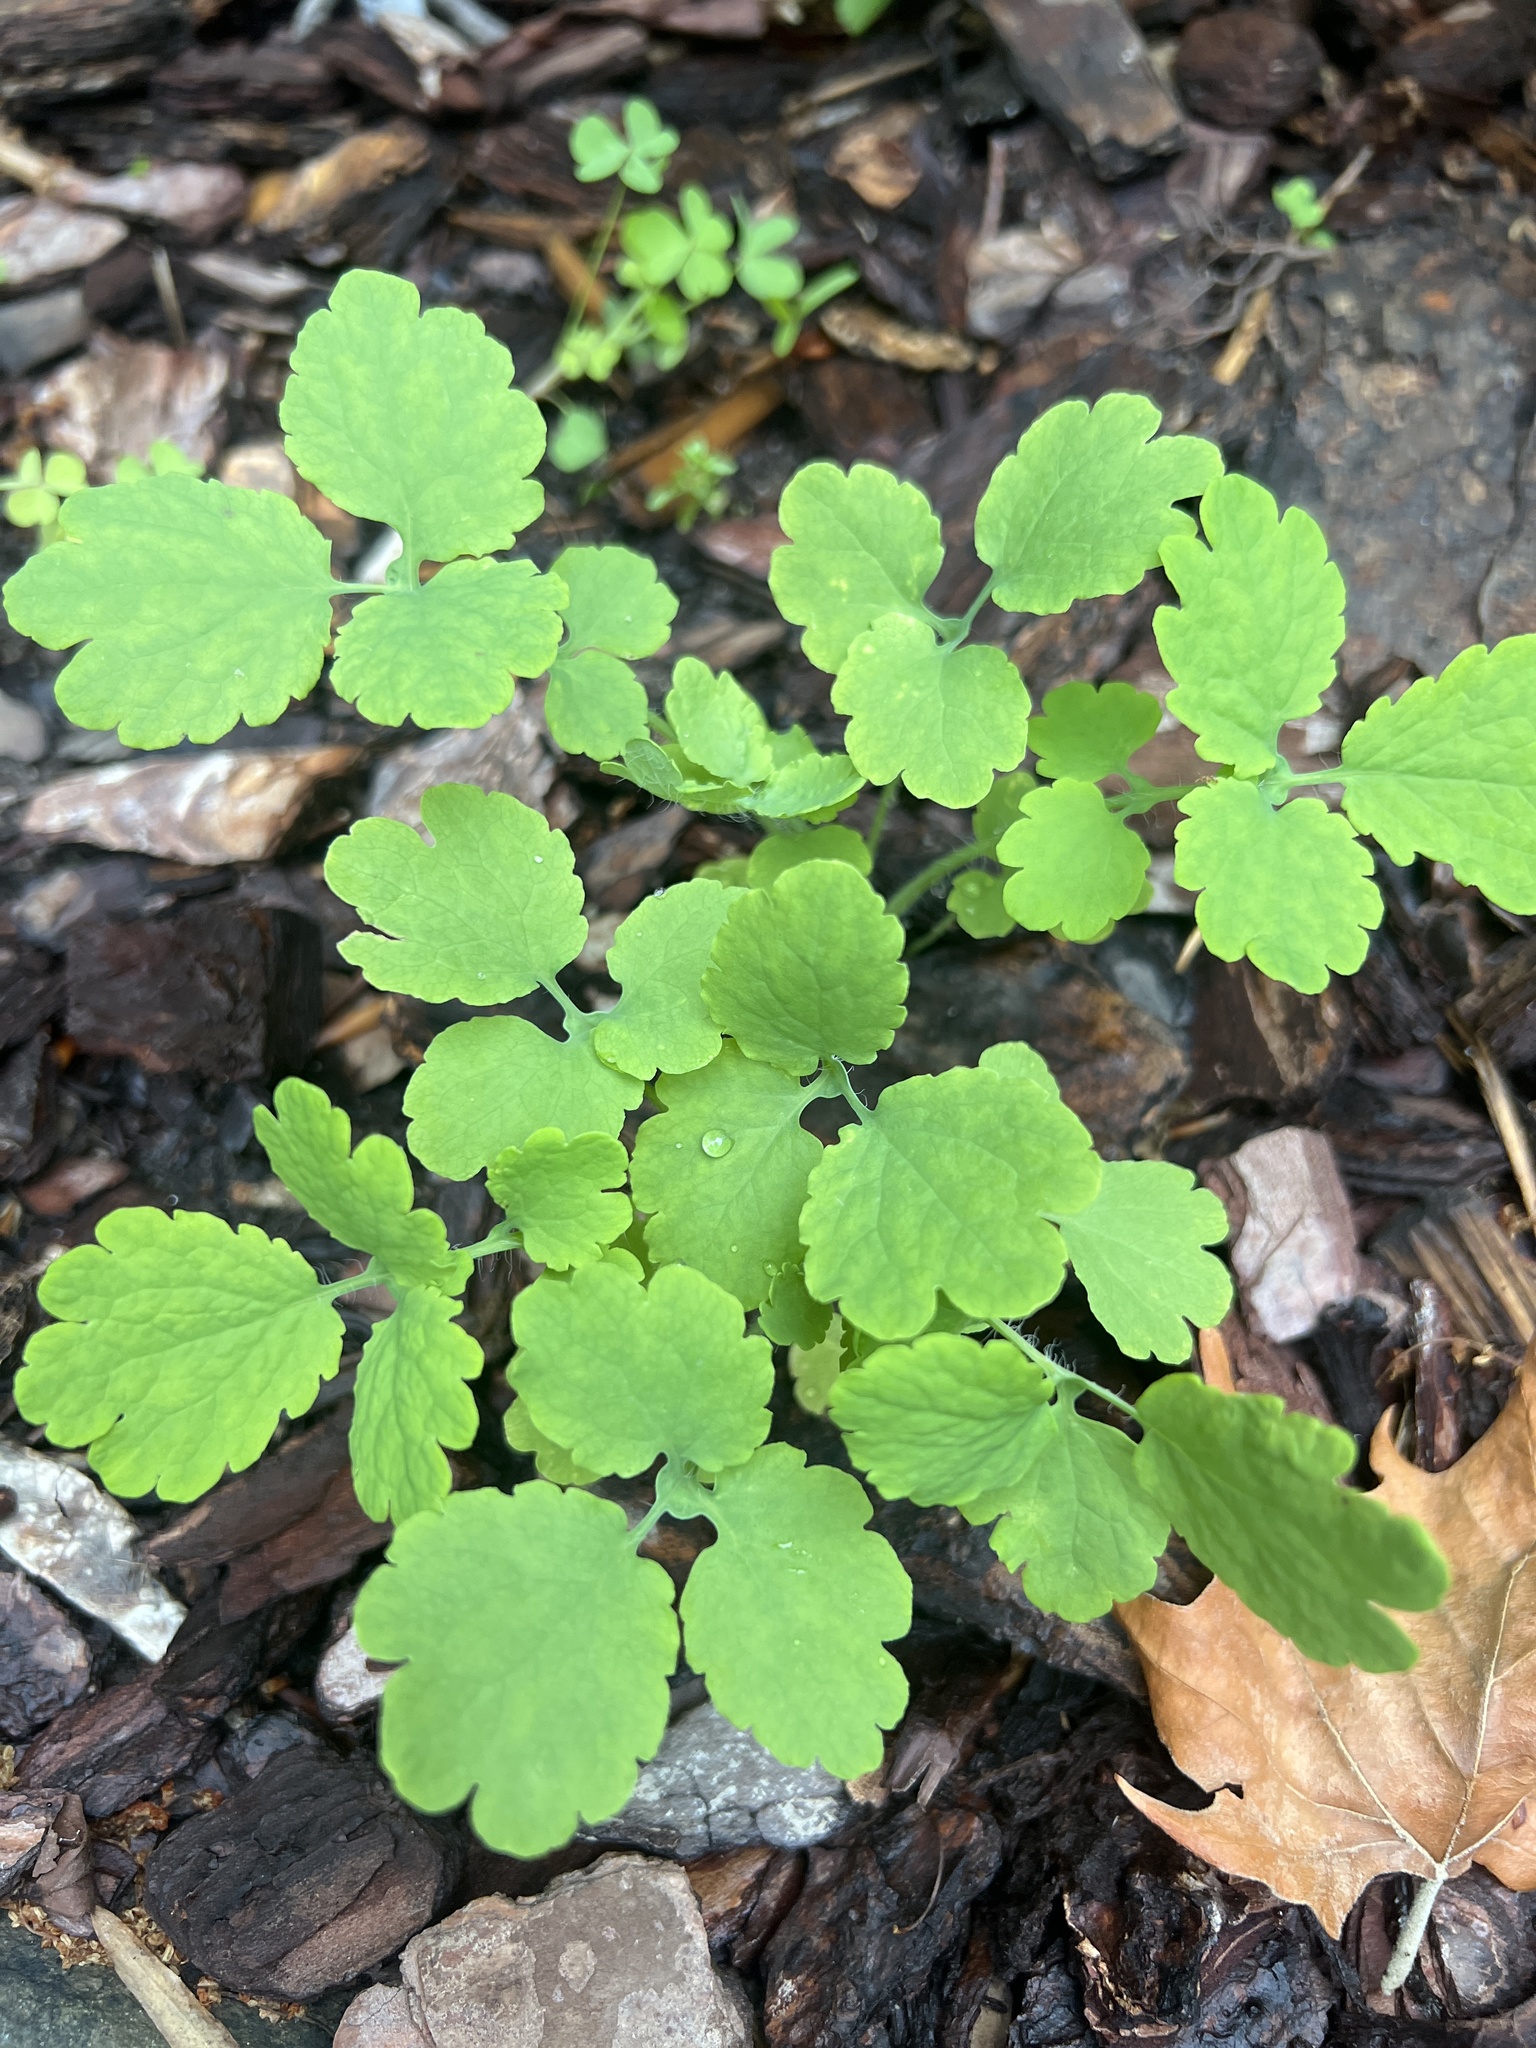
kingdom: Plantae
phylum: Tracheophyta
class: Magnoliopsida
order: Ranunculales
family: Papaveraceae
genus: Chelidonium
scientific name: Chelidonium majus
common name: Greater celandine
